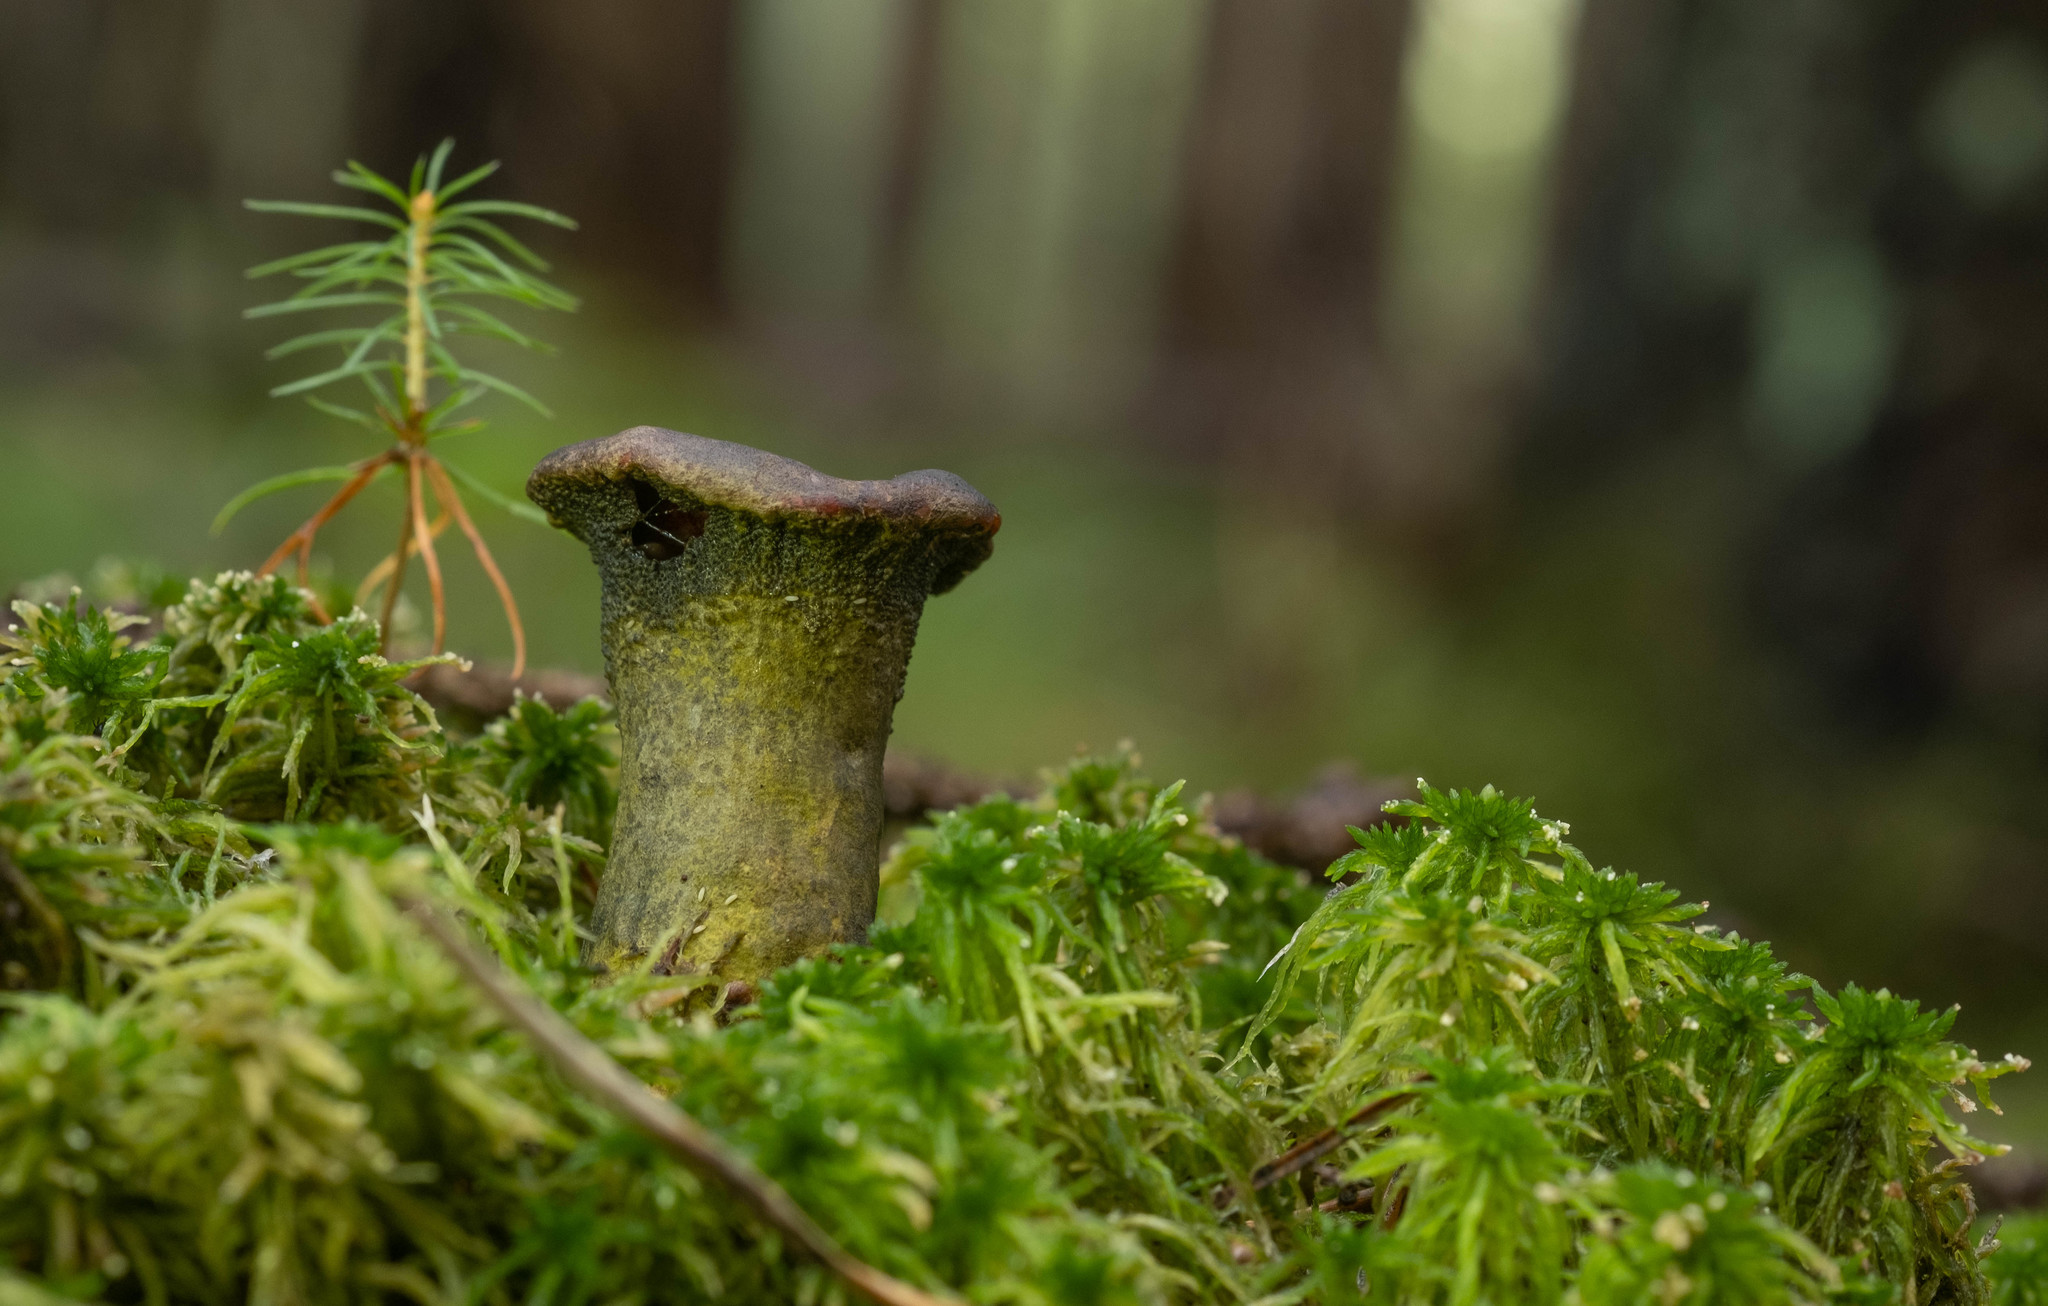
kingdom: Fungi
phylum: Ascomycota
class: Sordariomycetes
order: Hypocreales
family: Hypocreaceae
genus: Hypomyces
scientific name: Hypomyces viridis
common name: Green gillgobbler
